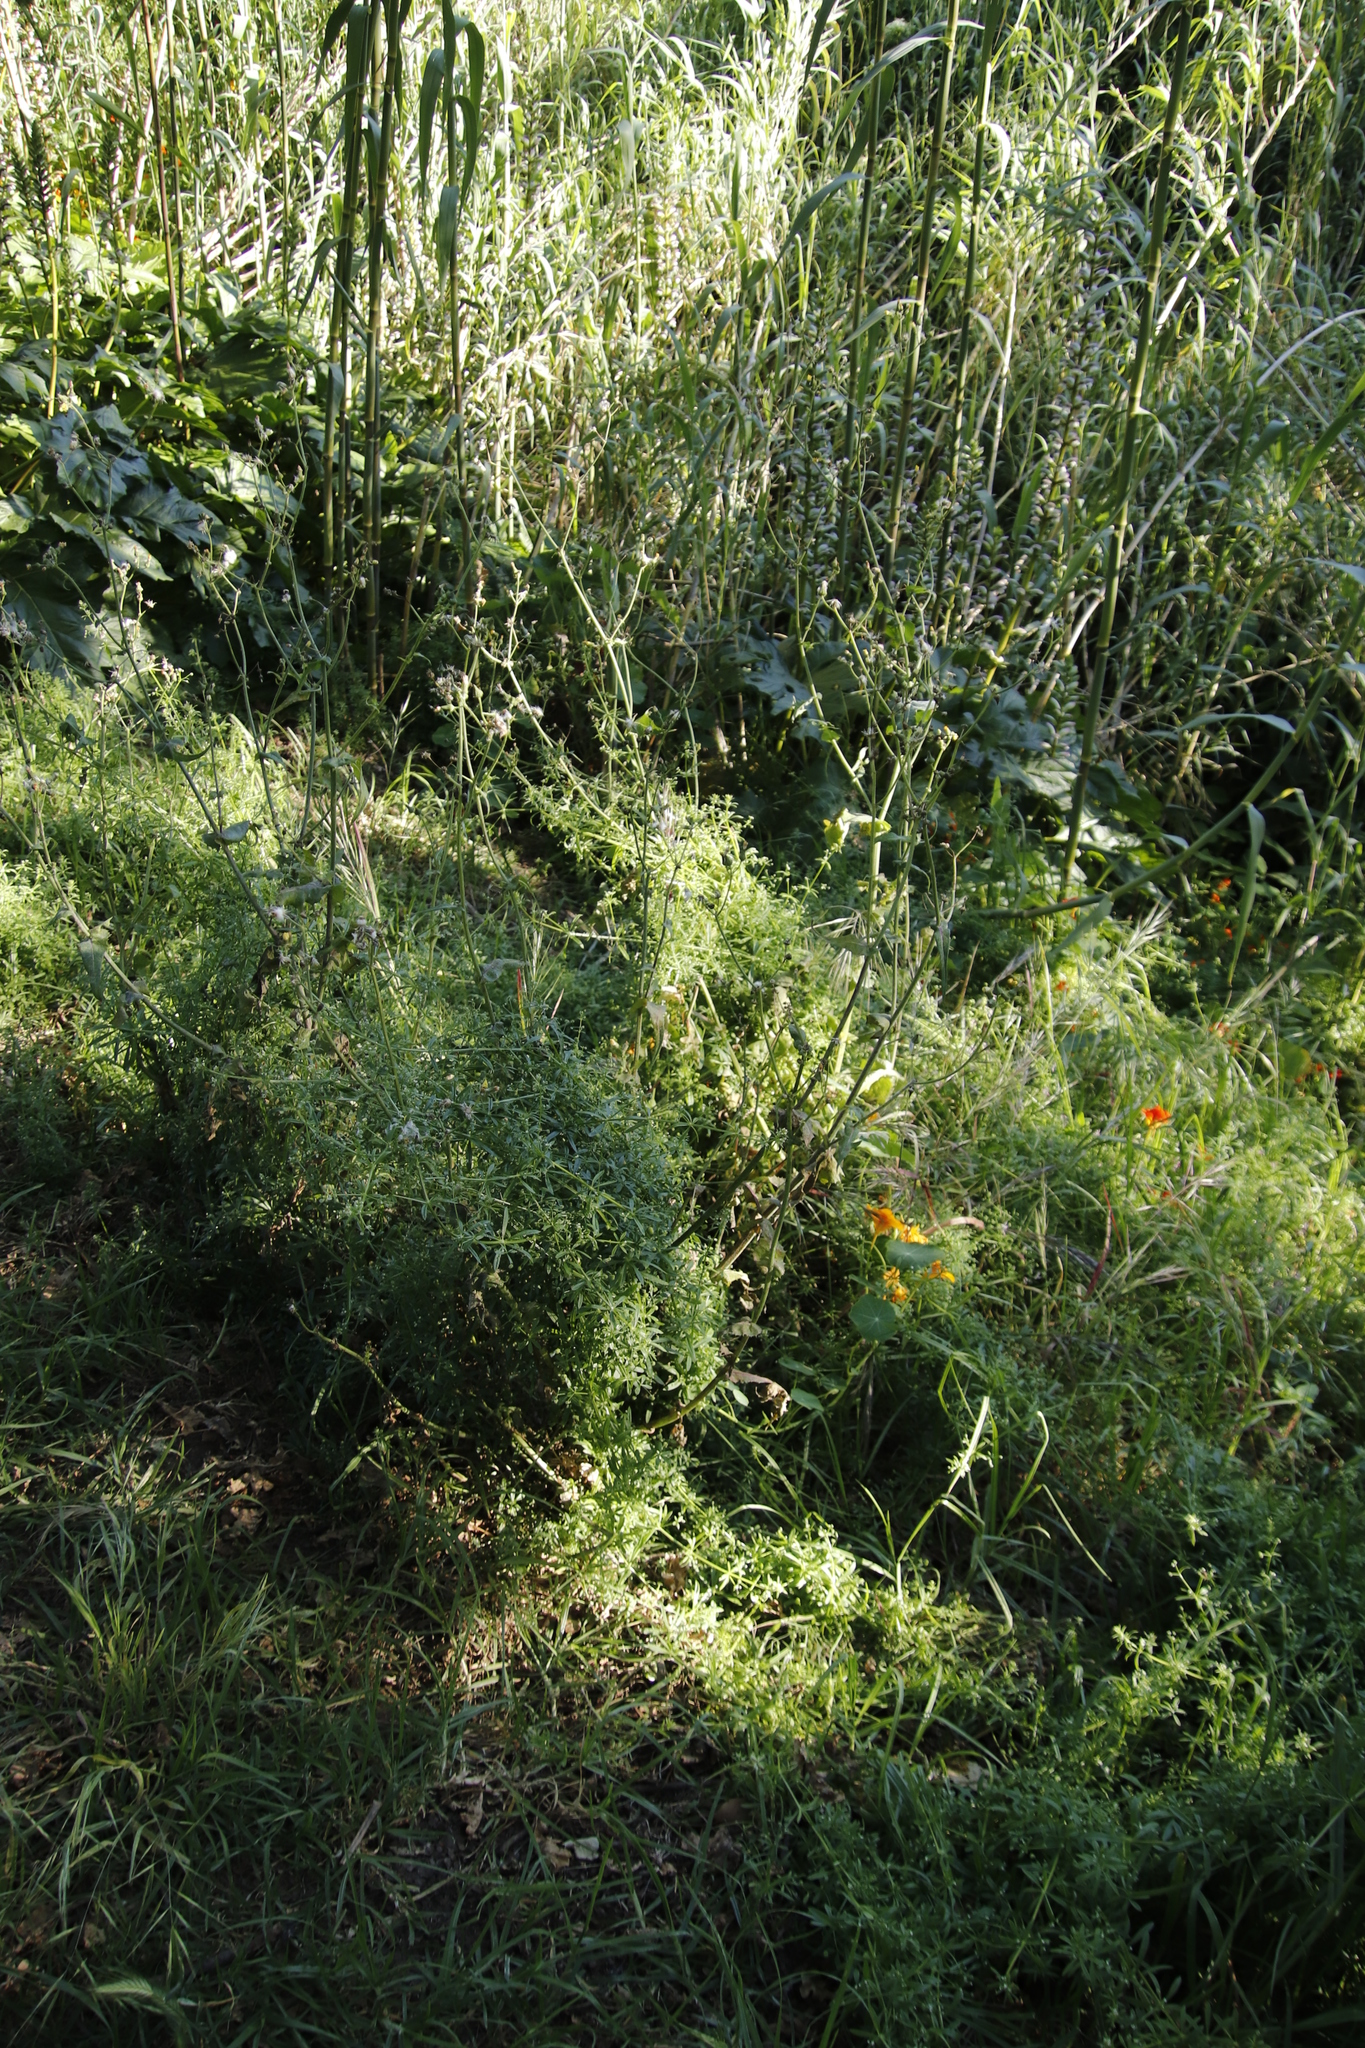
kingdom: Plantae
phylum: Tracheophyta
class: Magnoliopsida
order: Asterales
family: Asteraceae
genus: Sonchus
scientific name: Sonchus oleraceus
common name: Common sowthistle
